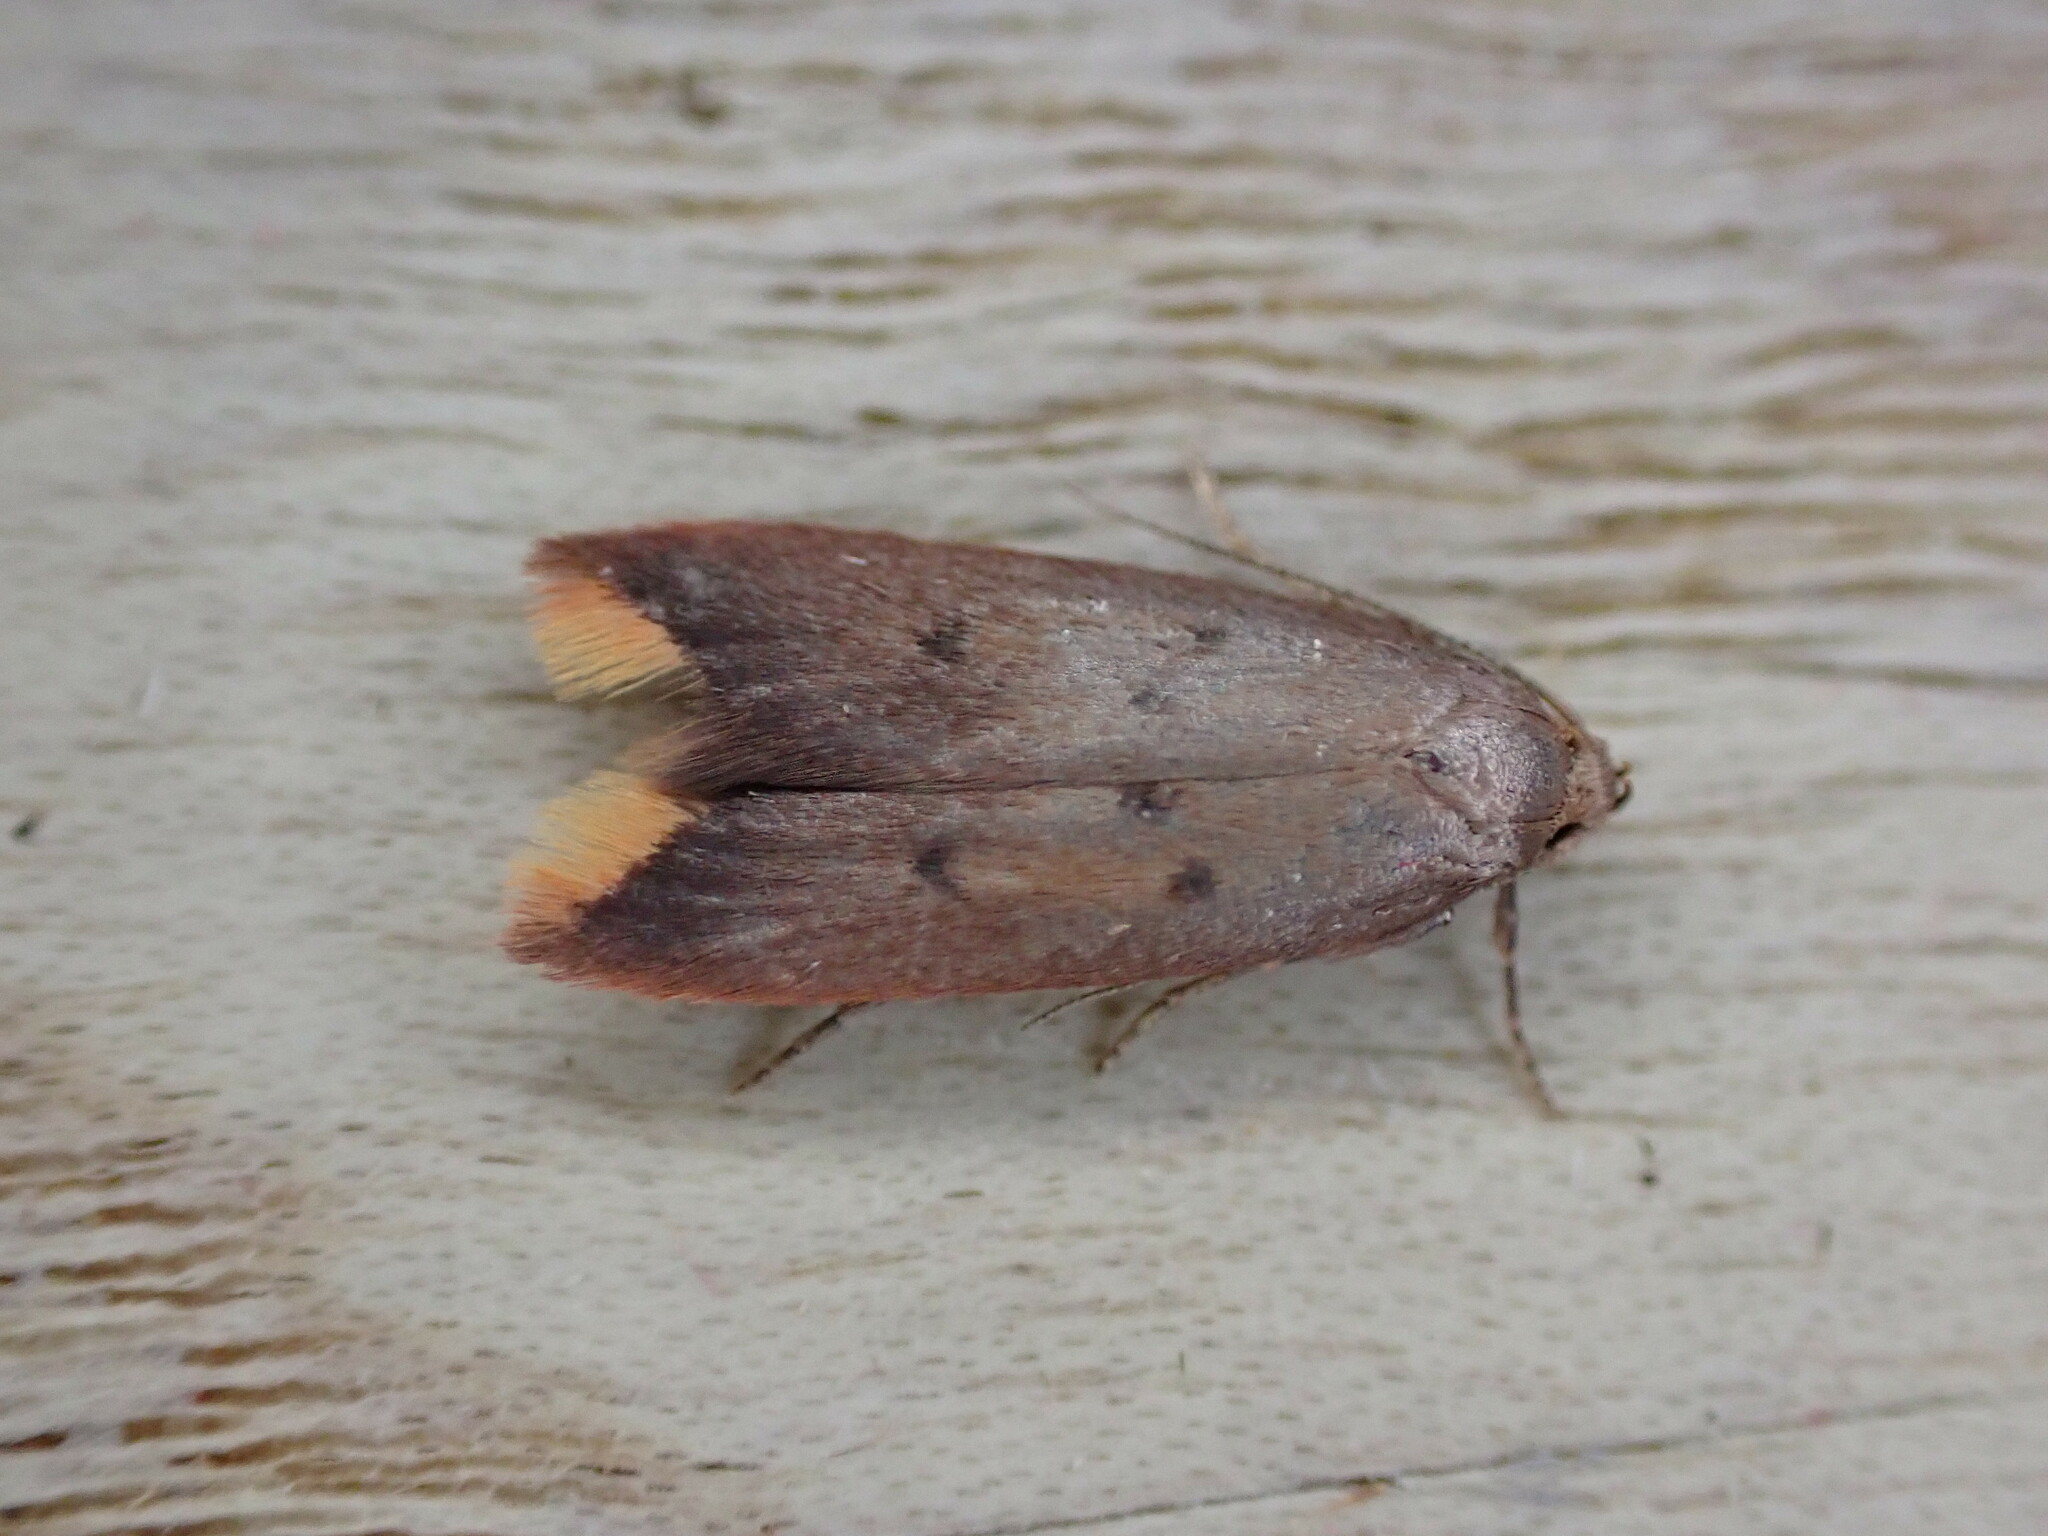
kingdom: Animalia
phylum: Arthropoda
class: Insecta
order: Lepidoptera
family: Oecophoridae
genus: Tachystola
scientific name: Tachystola acroxantha
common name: Ruddy streak
